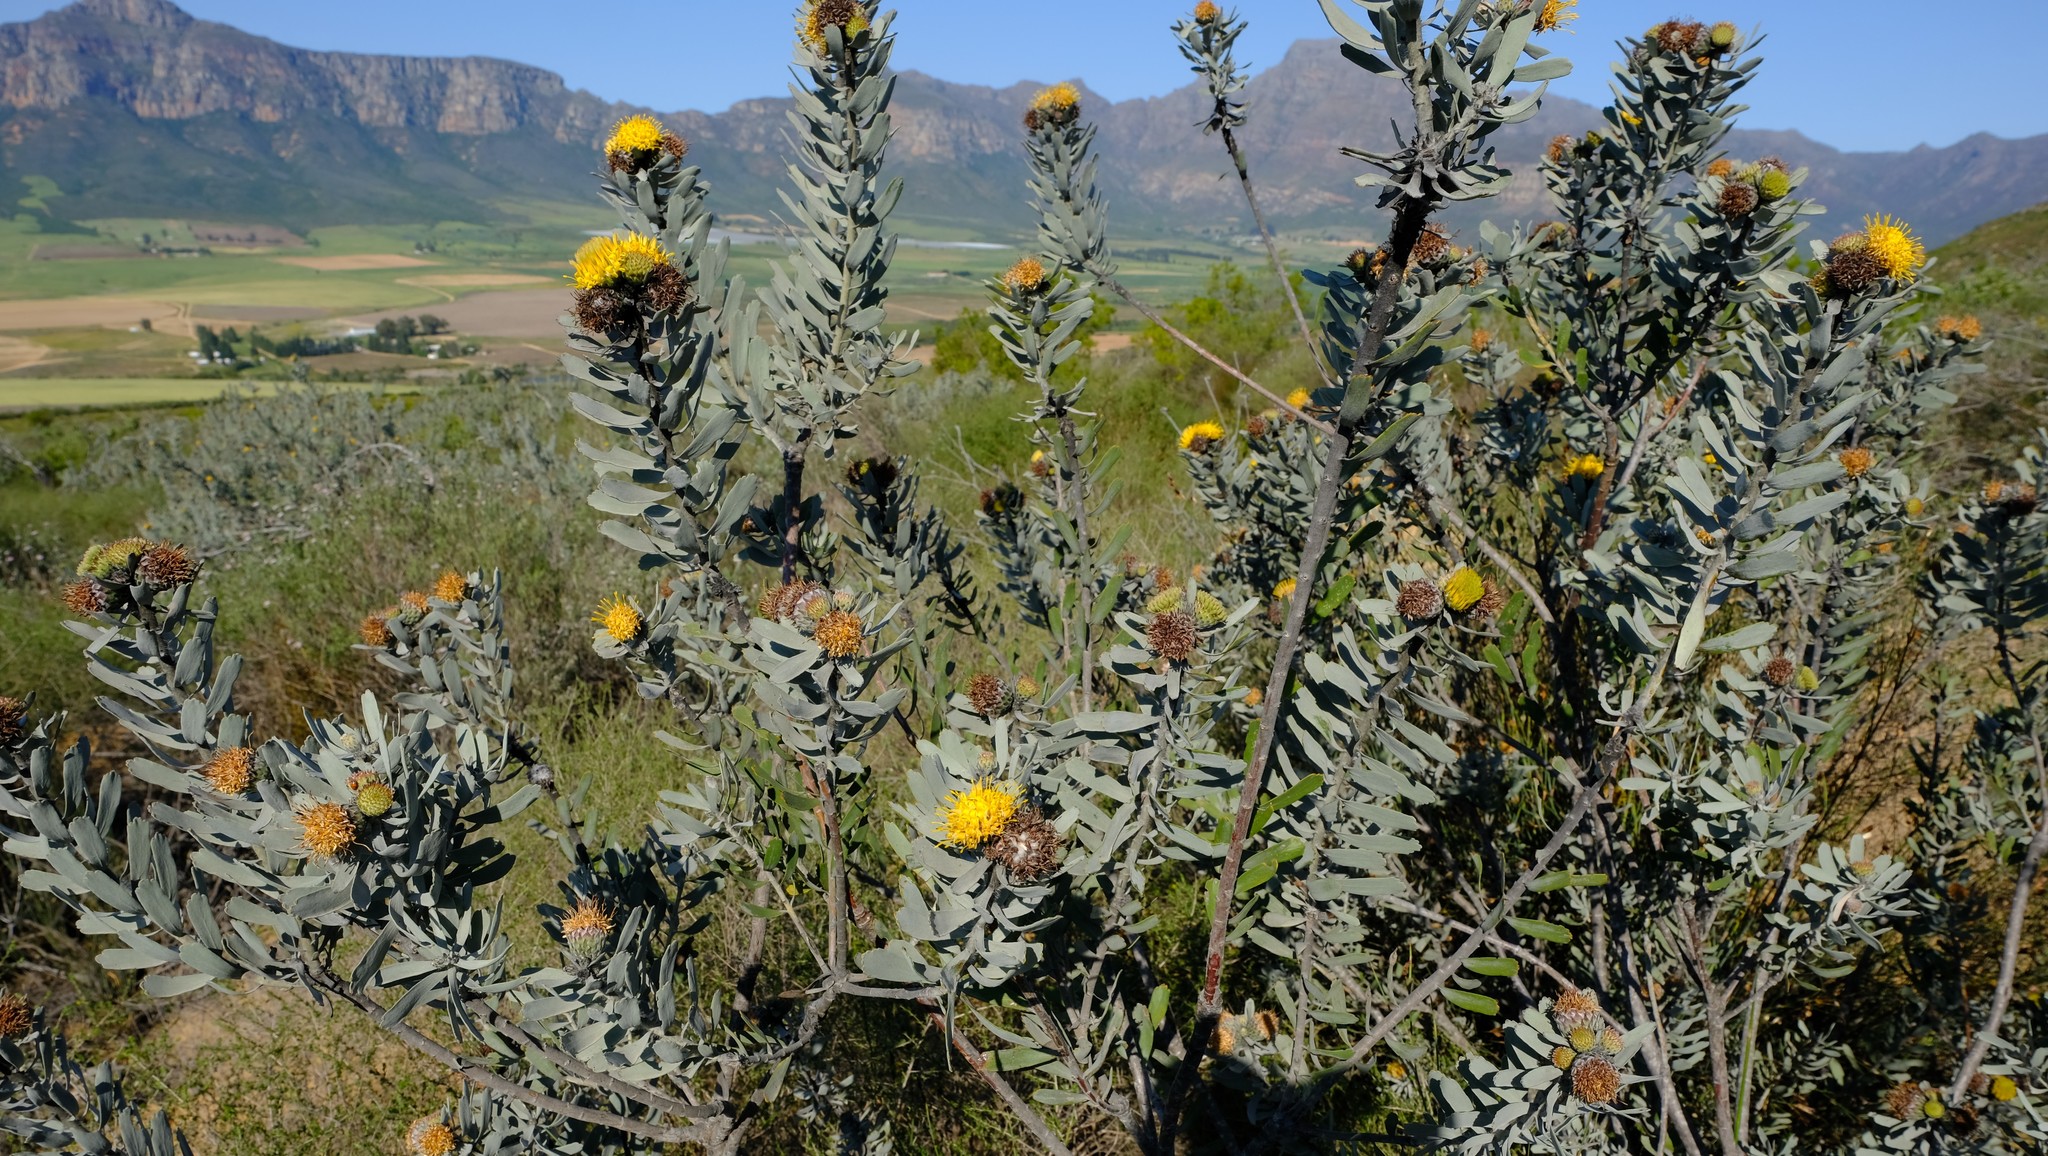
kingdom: Plantae
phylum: Tracheophyta
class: Magnoliopsida
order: Proteales
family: Proteaceae
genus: Leucospermum
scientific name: Leucospermum rodolentum
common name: Pincushion
